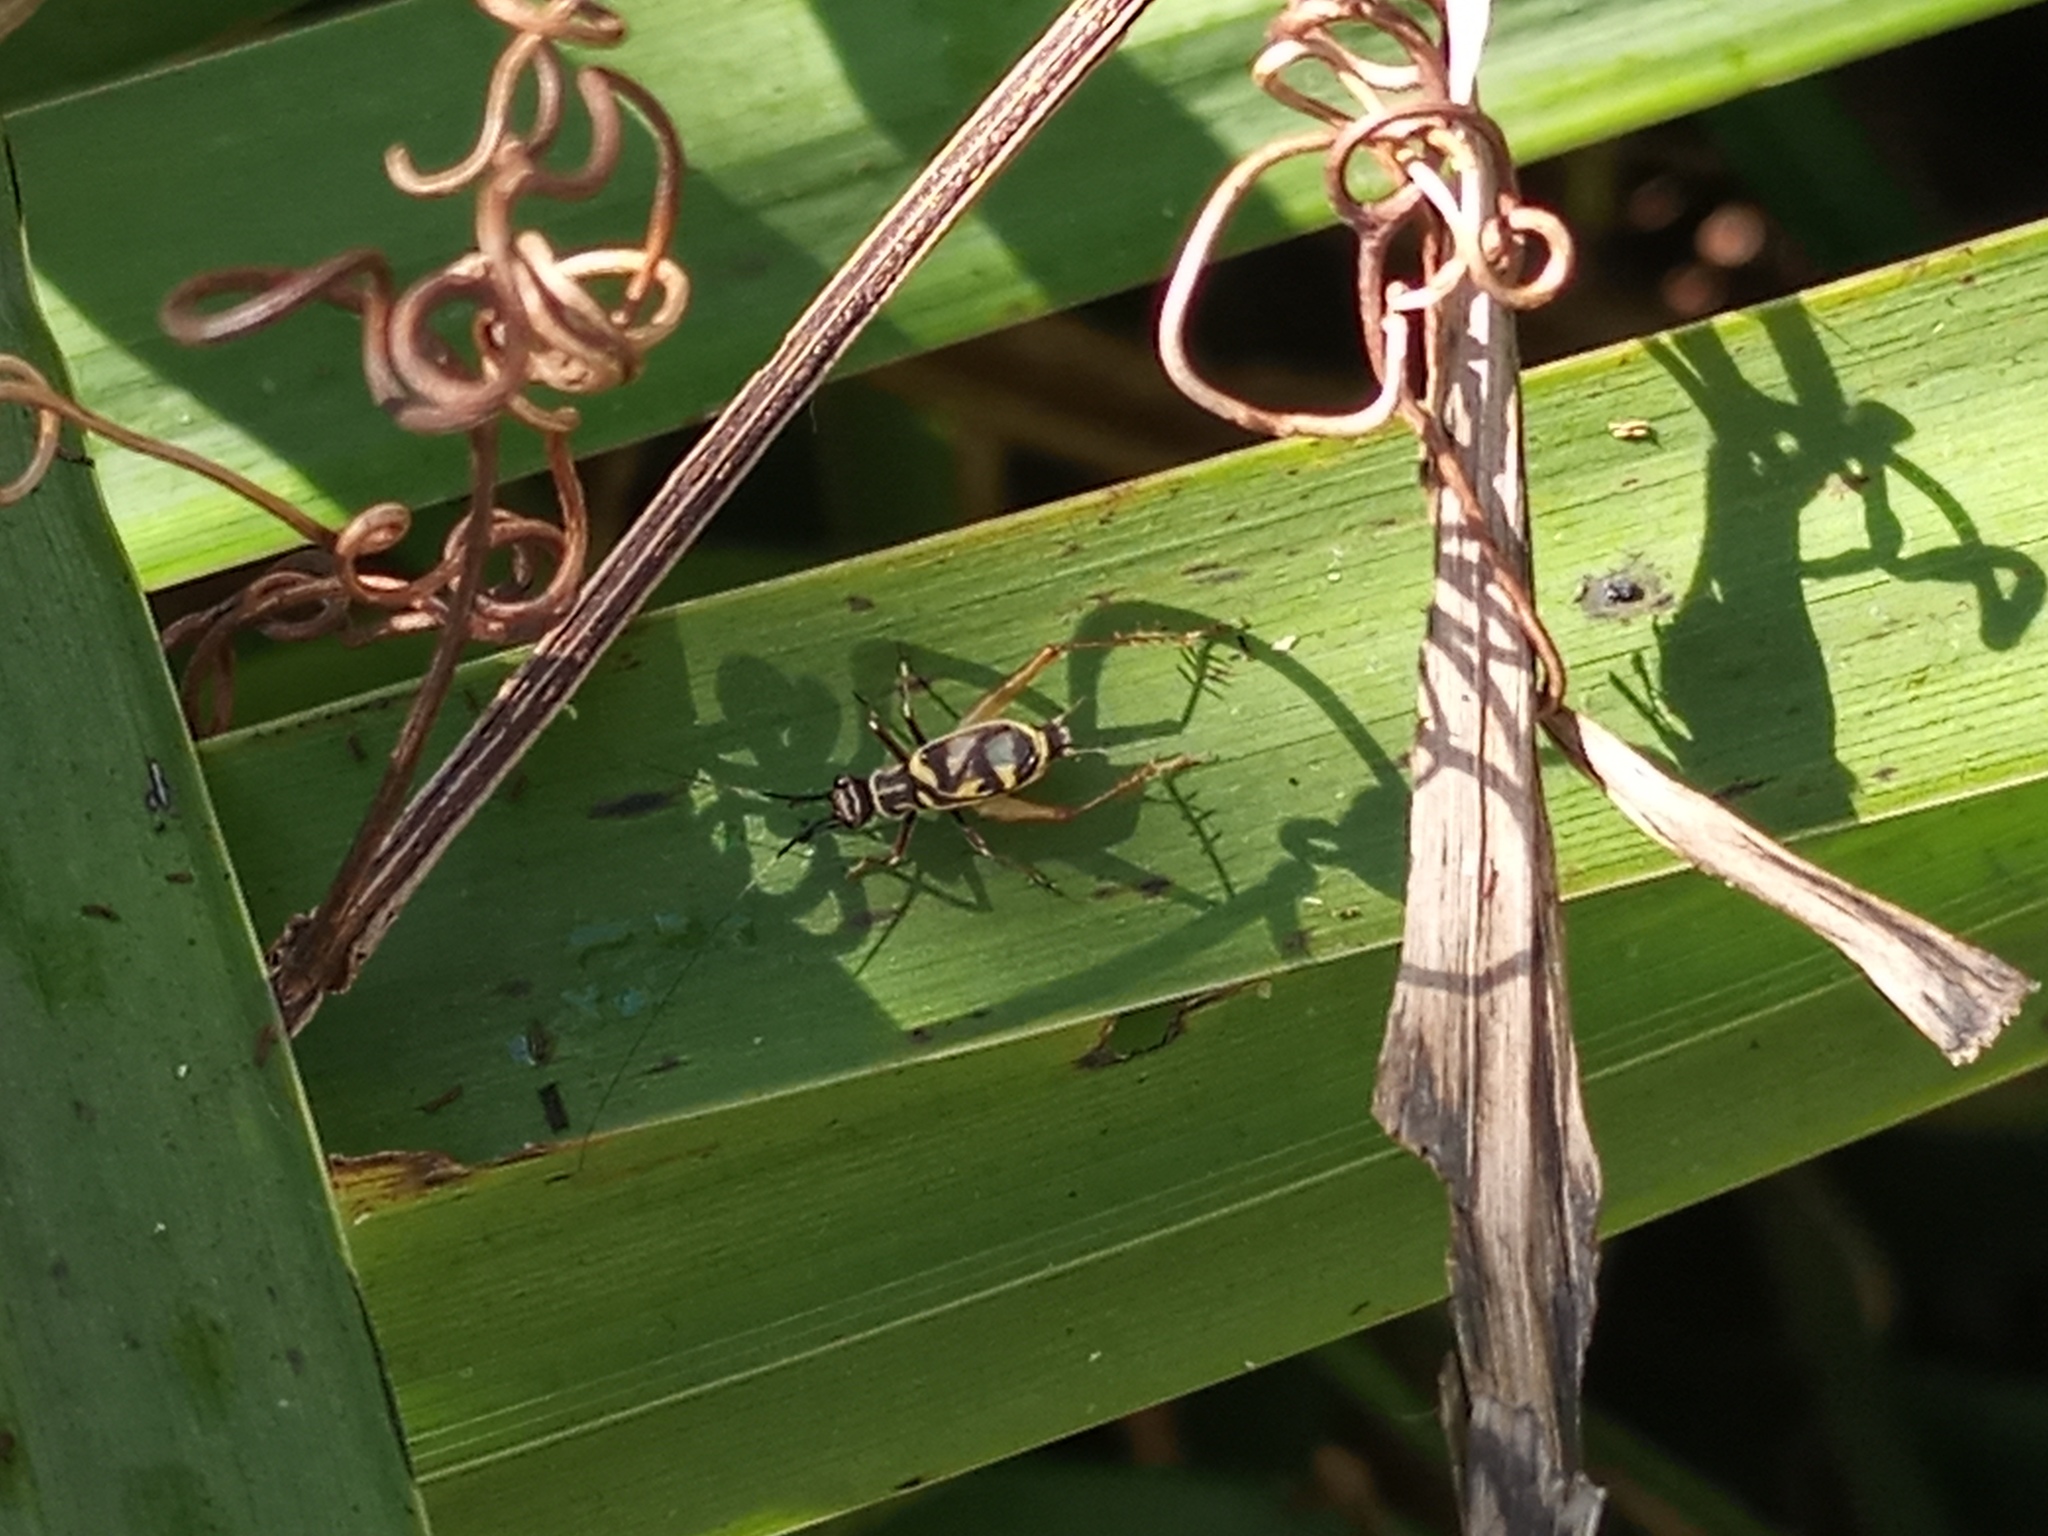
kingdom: Animalia
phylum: Arthropoda
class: Insecta
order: Orthoptera
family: Trigonidiidae
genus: Phylloscyrtus
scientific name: Phylloscyrtus amoenus
